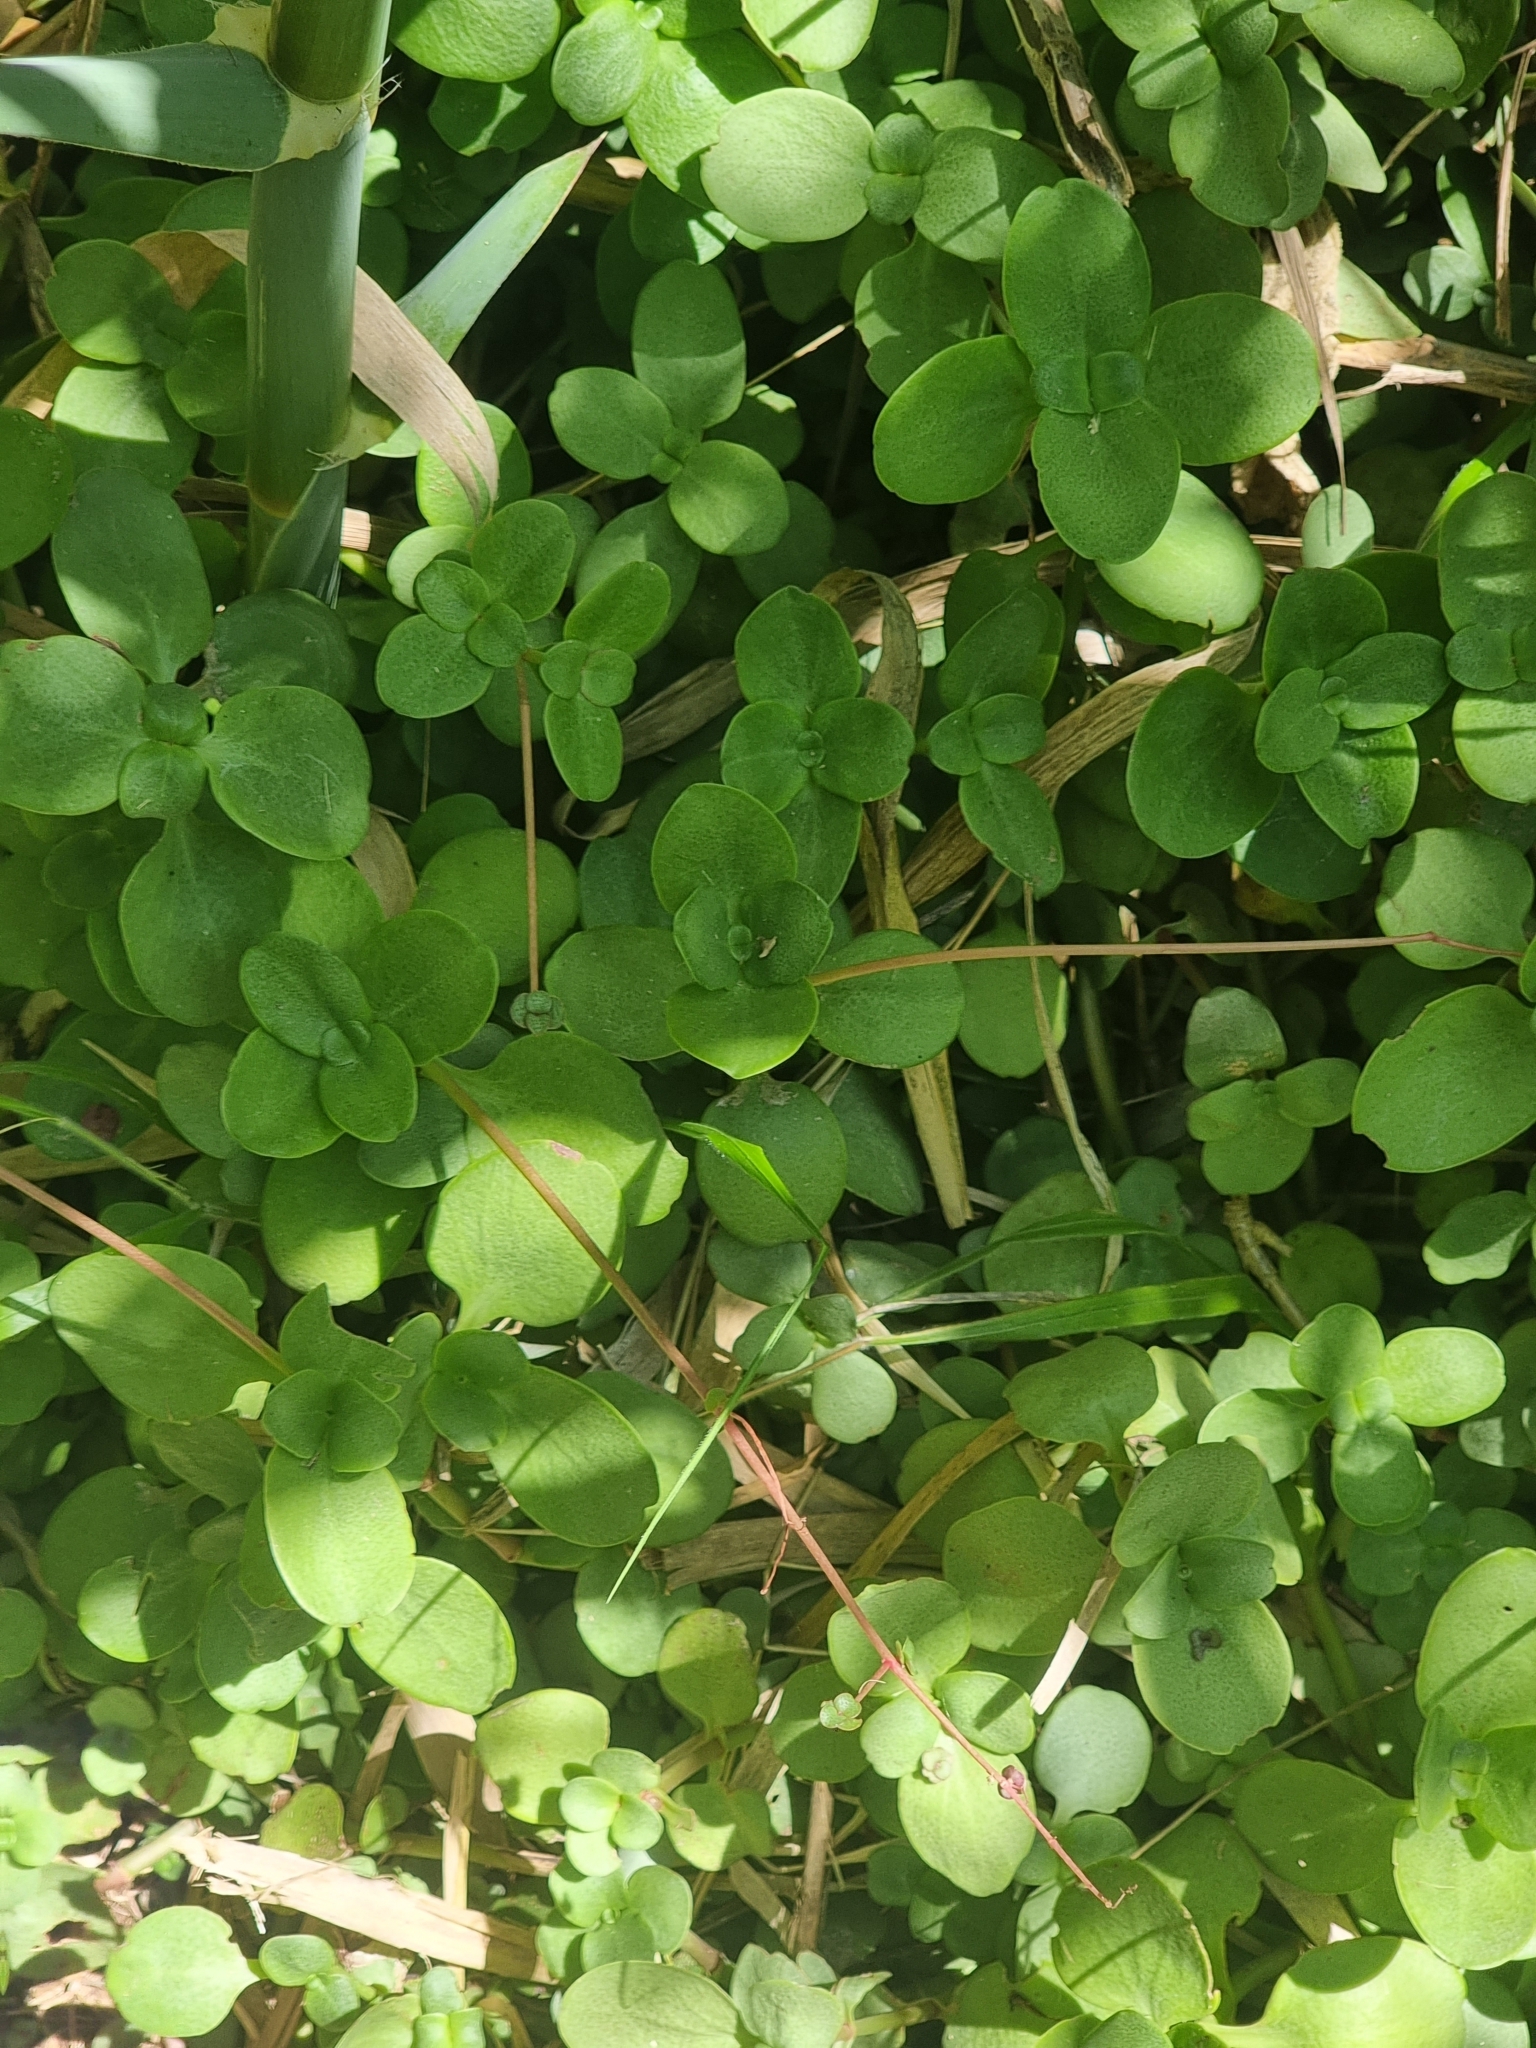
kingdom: Plantae
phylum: Tracheophyta
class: Magnoliopsida
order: Saxifragales
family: Crassulaceae
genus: Crassula
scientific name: Crassula multicava
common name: Cape province pygmyweed
